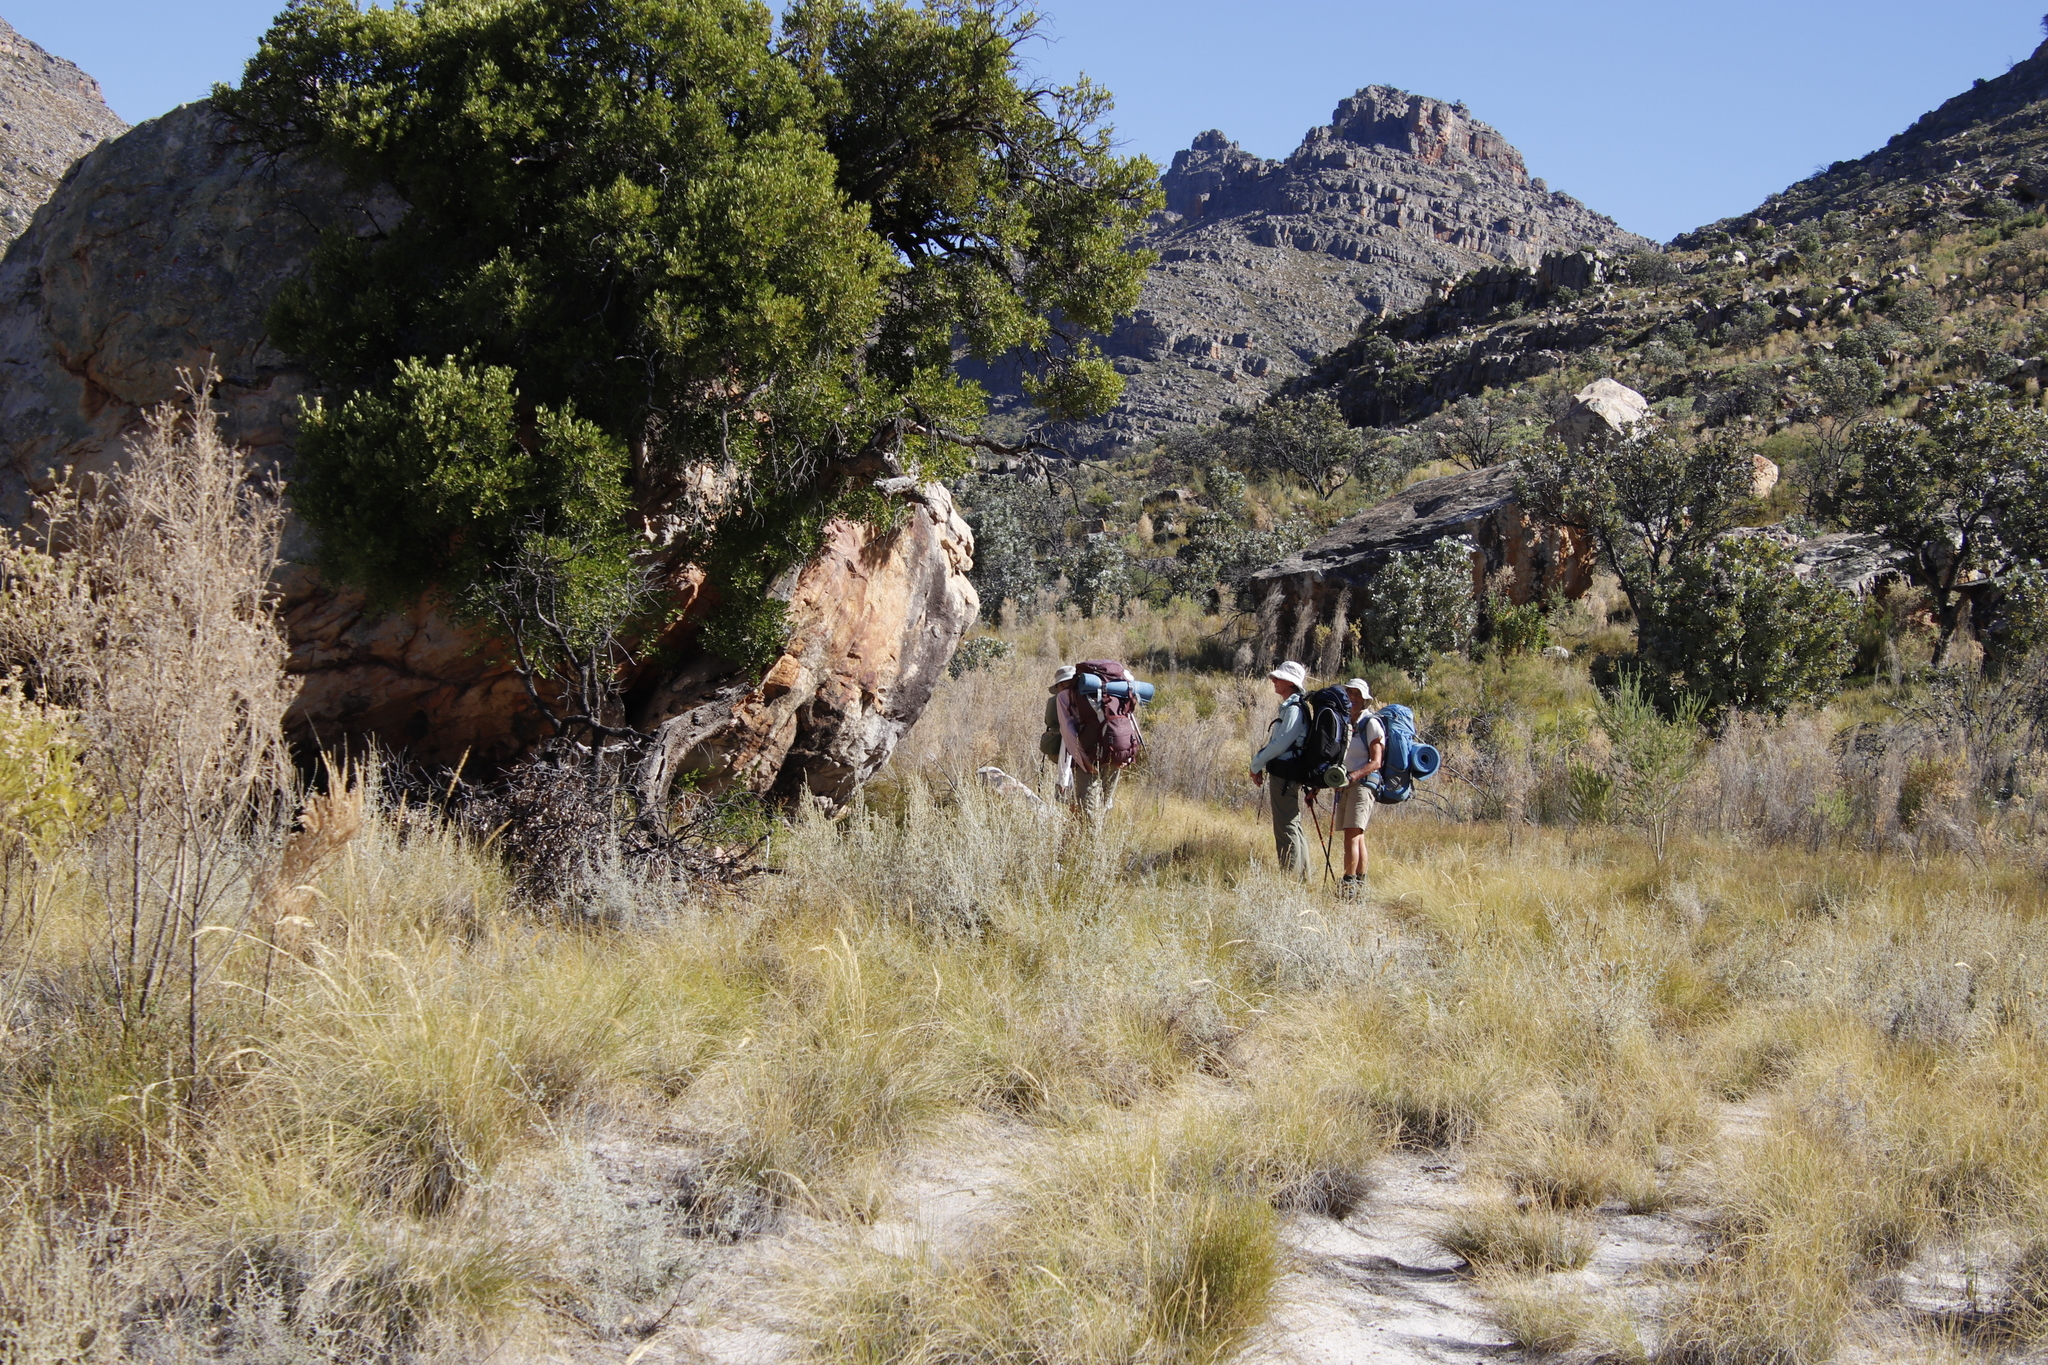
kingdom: Plantae
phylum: Tracheophyta
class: Magnoliopsida
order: Celastrales
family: Celastraceae
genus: Gymnosporia
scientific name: Gymnosporia laurina
